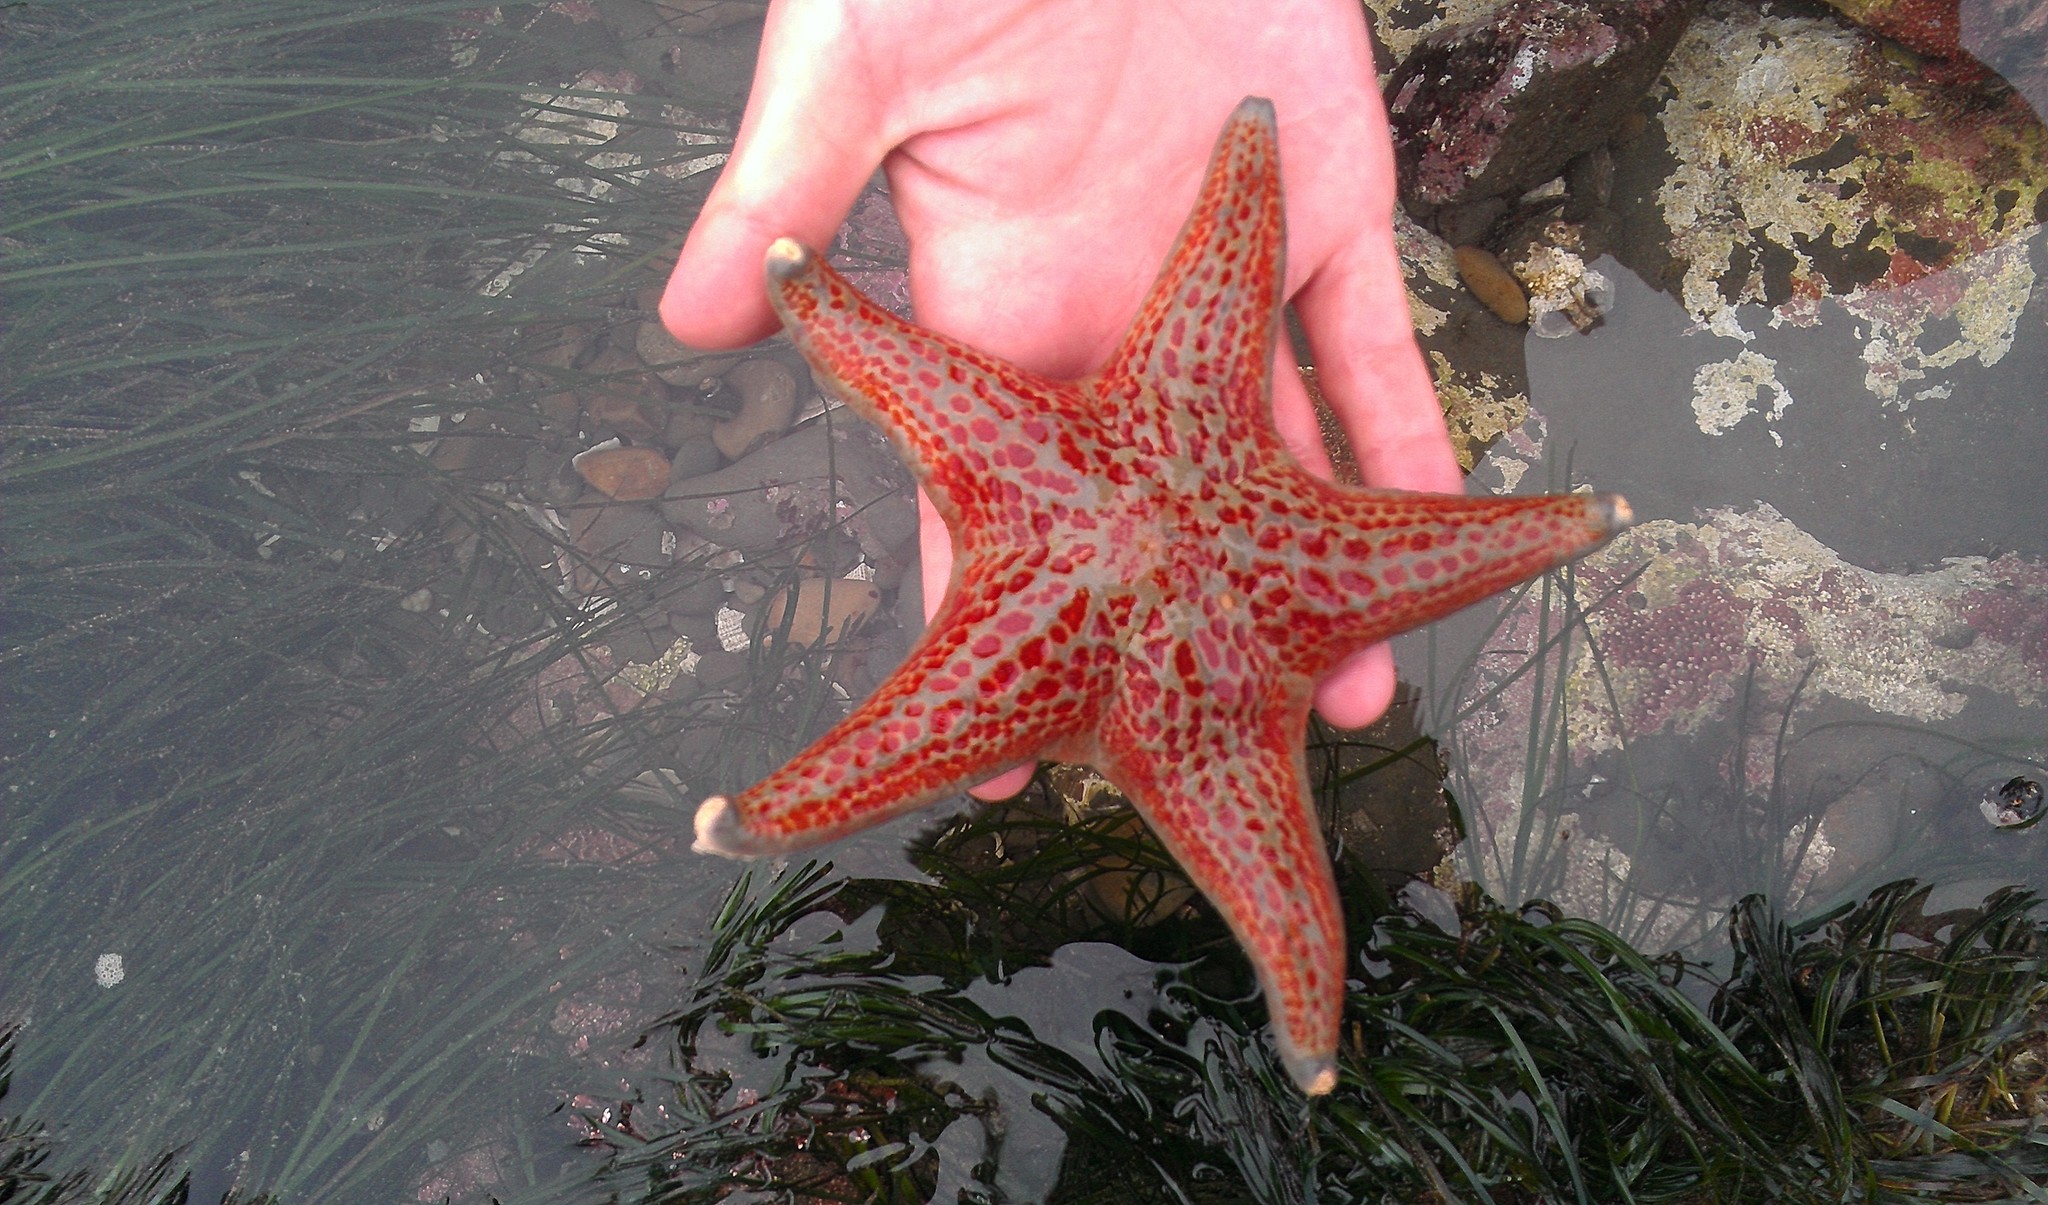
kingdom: Animalia
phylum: Echinodermata
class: Asteroidea
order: Valvatida
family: Asteropseidae
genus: Dermasterias
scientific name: Dermasterias imbricata
